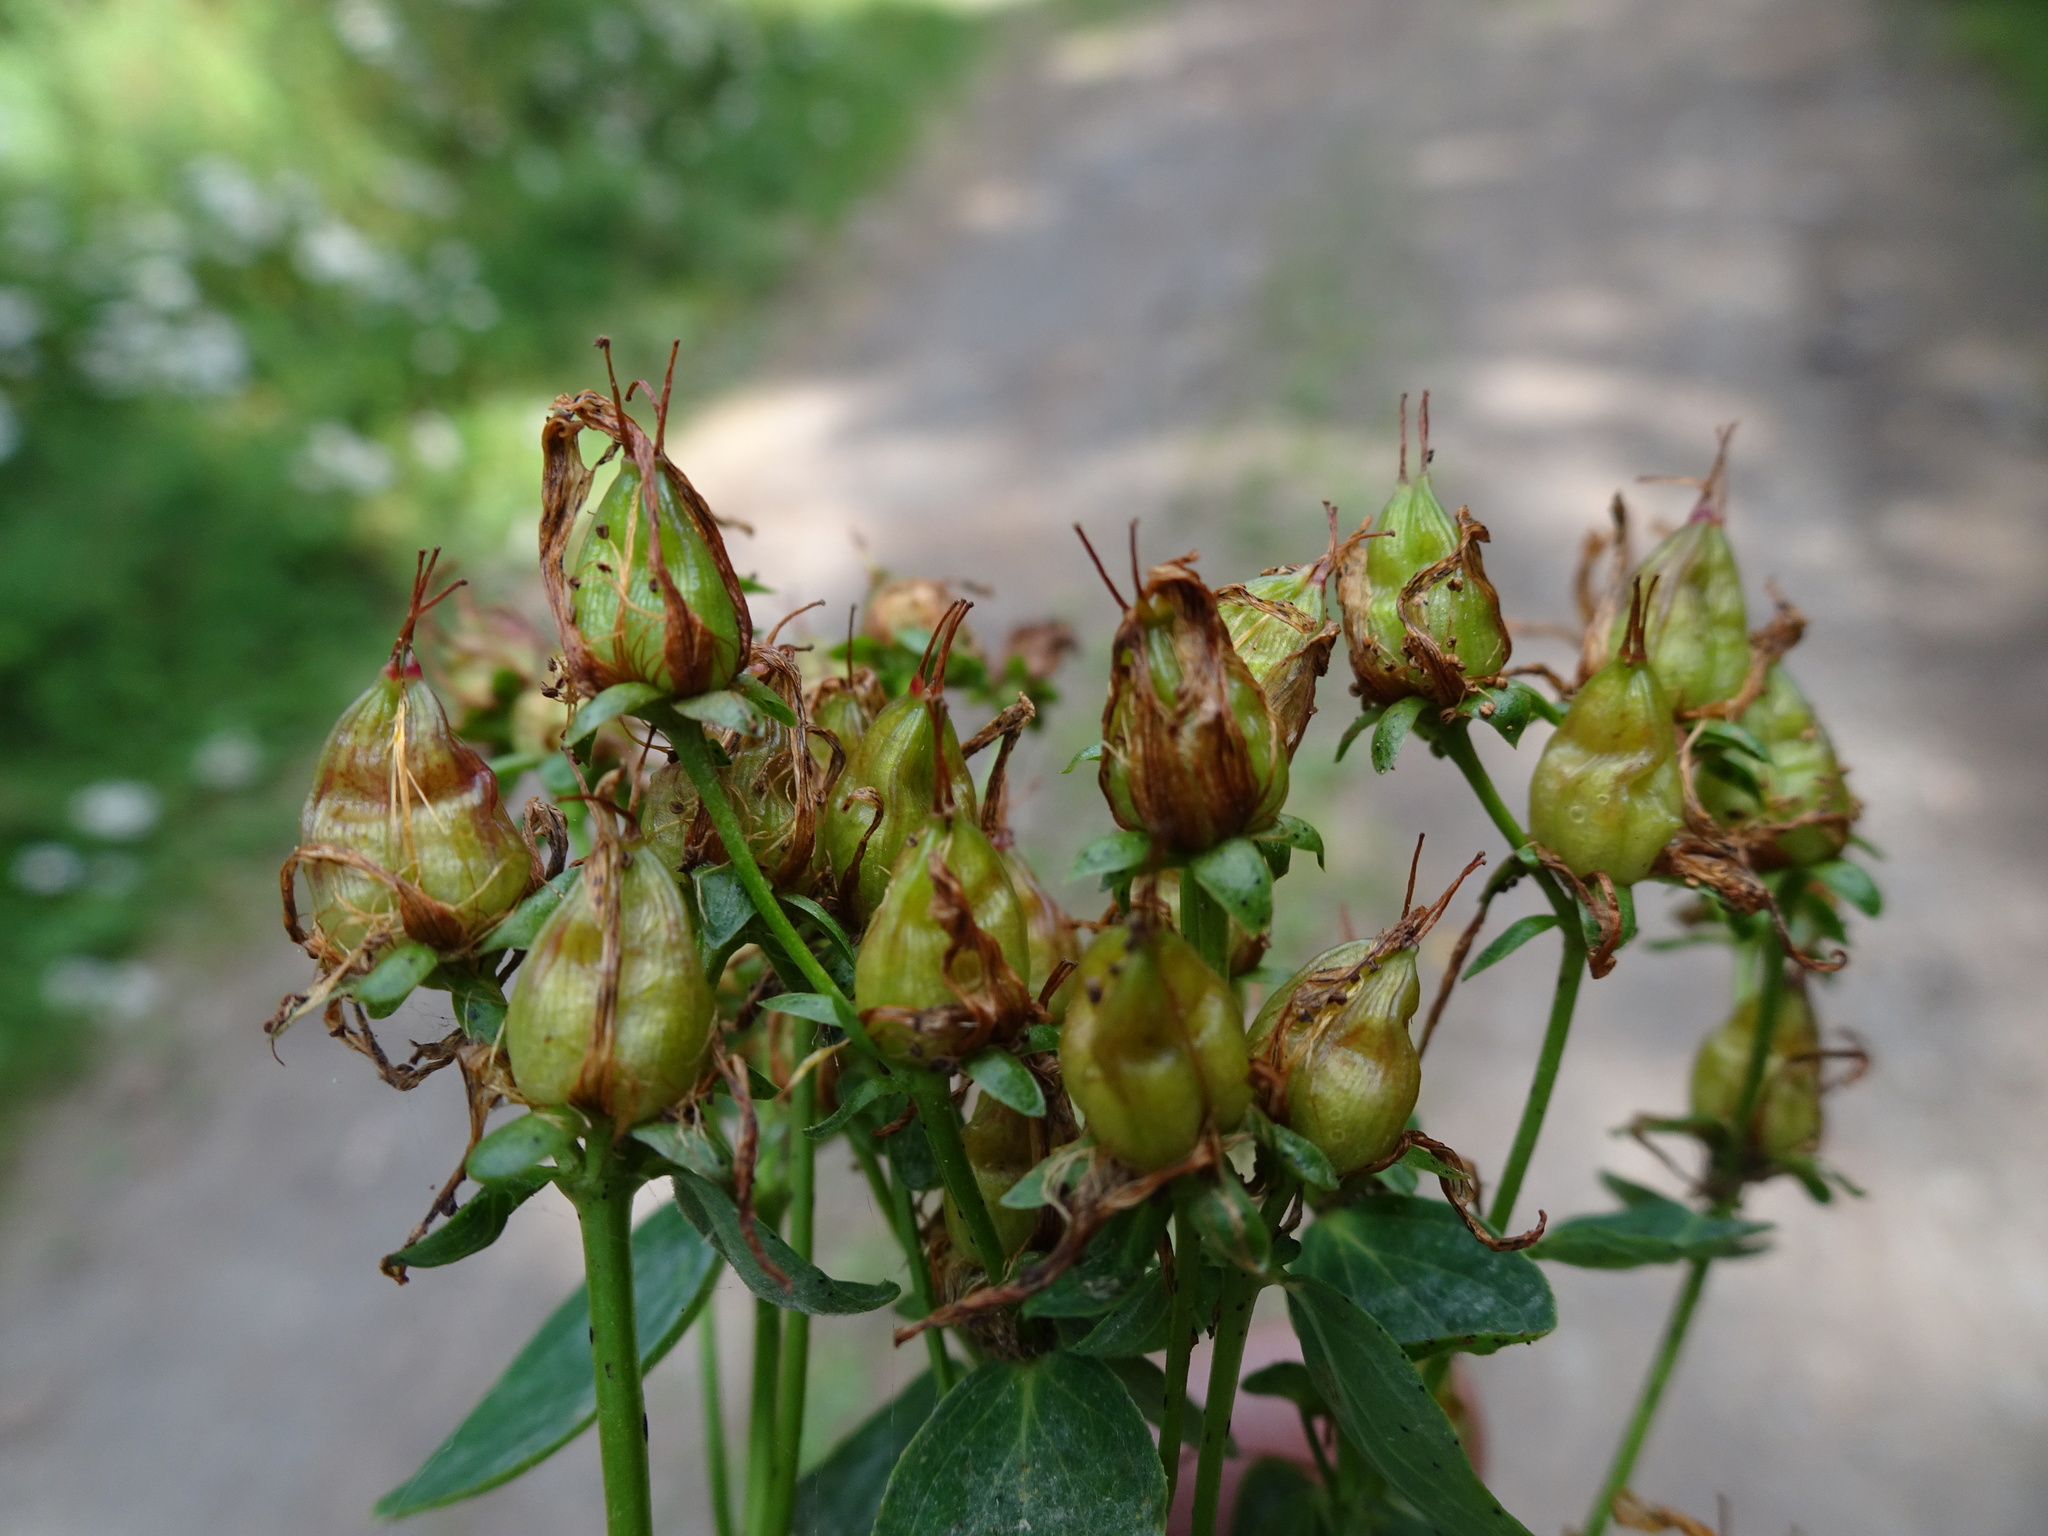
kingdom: Plantae
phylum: Tracheophyta
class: Magnoliopsida
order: Malpighiales
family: Hypericaceae
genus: Hypericum
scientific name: Hypericum dubium
